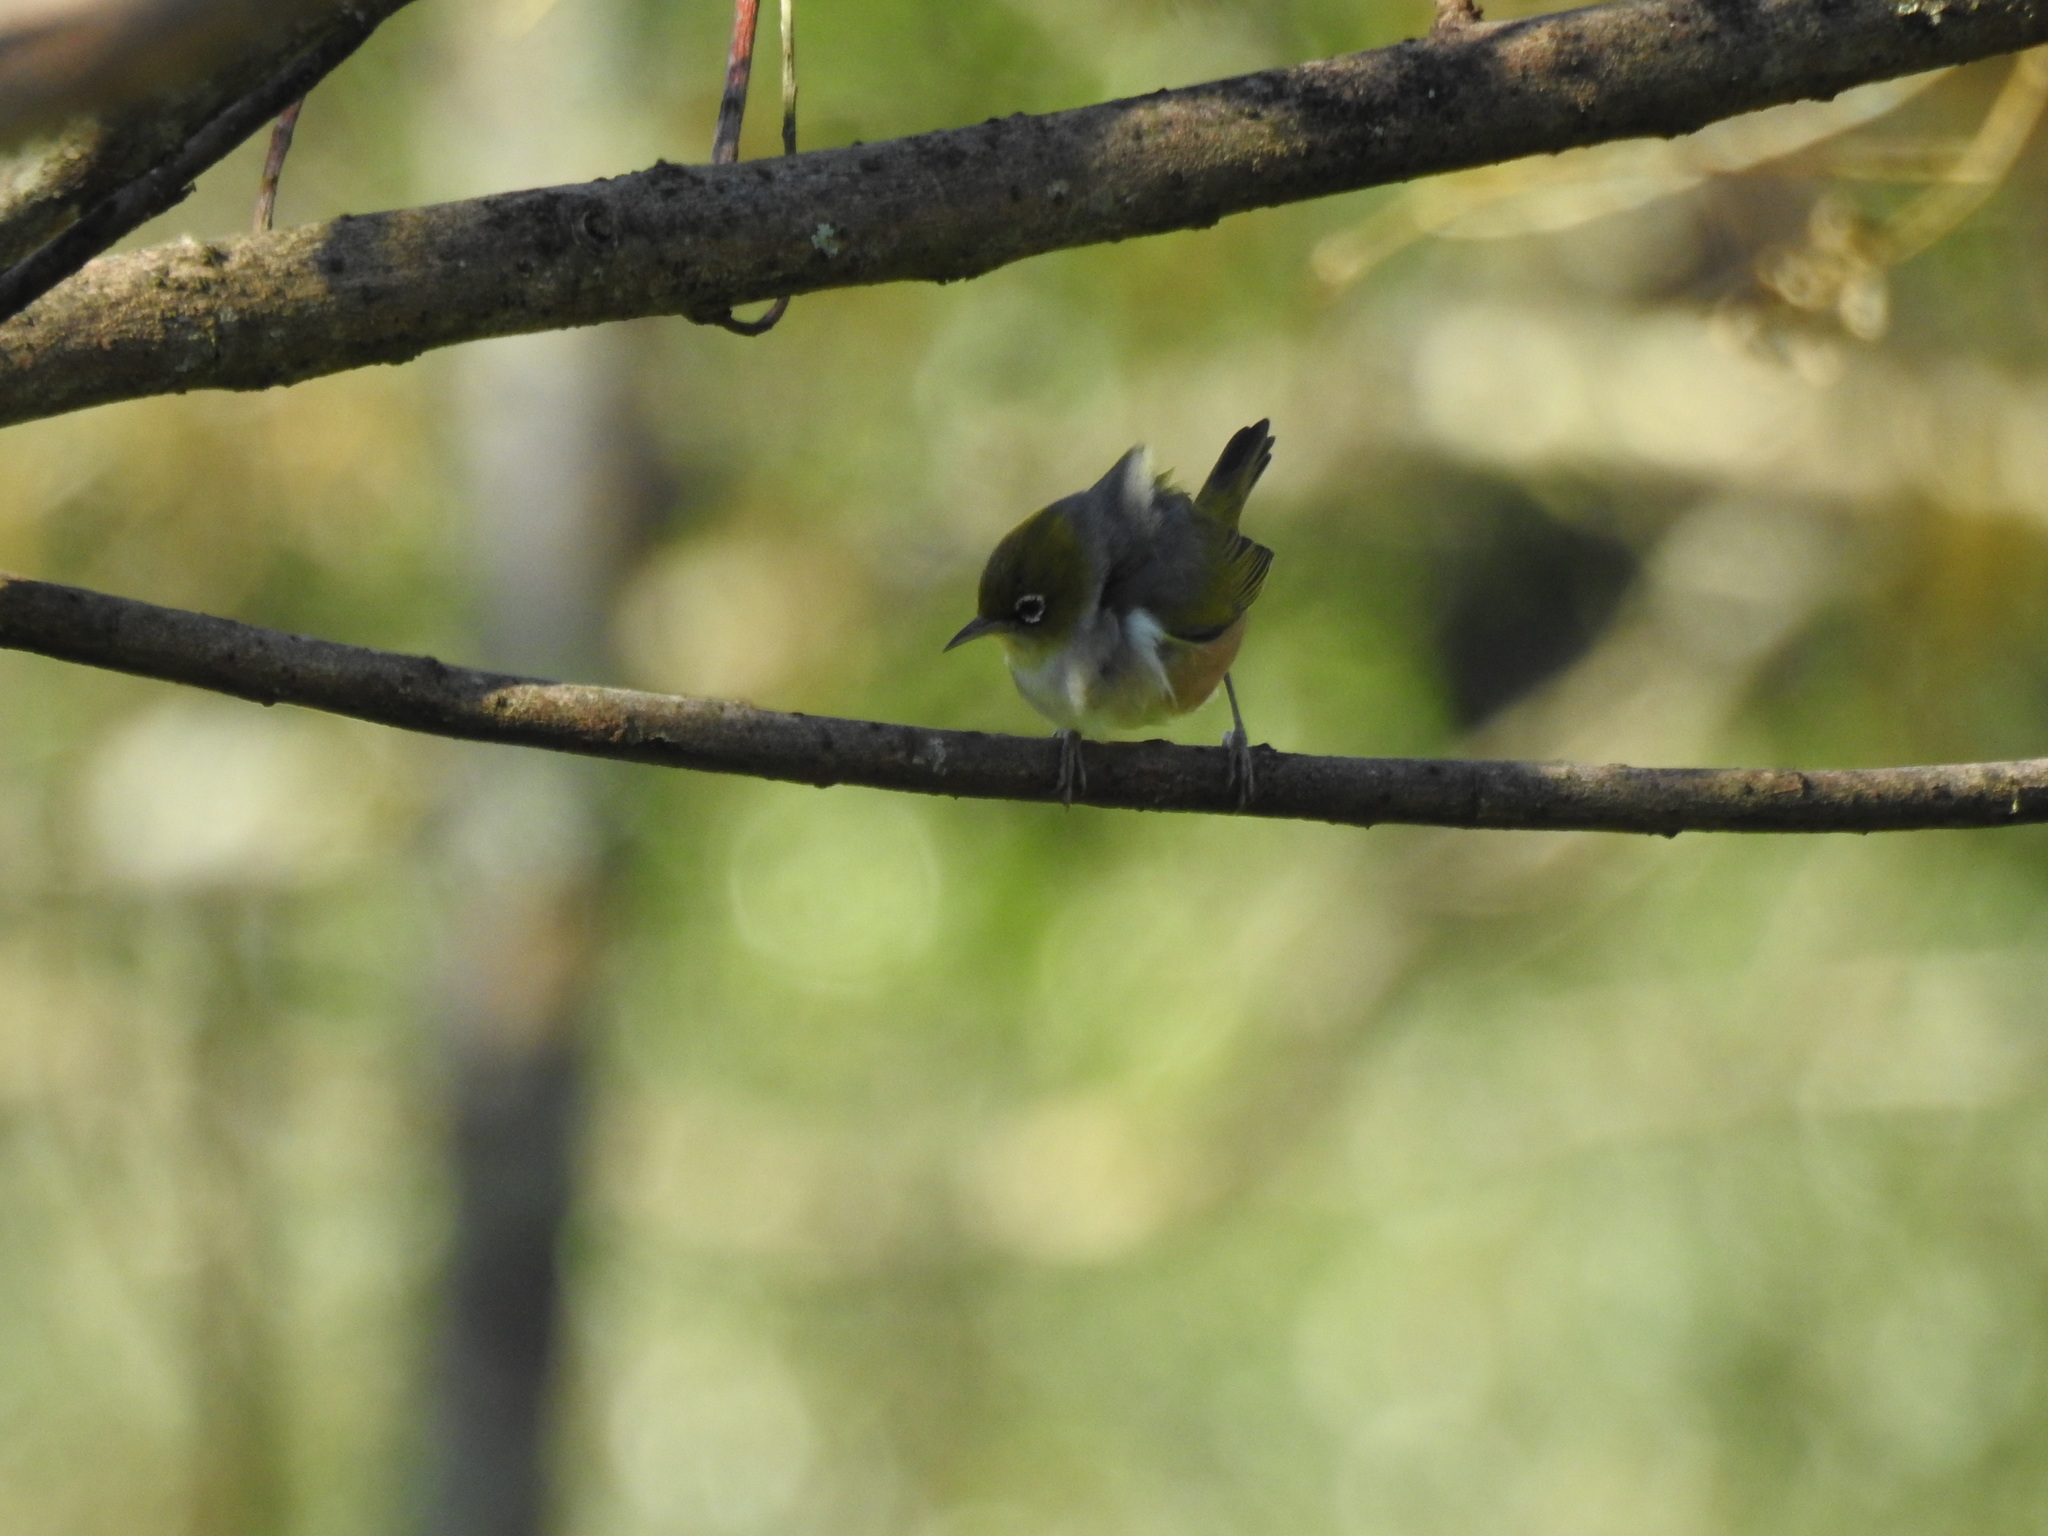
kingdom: Animalia
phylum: Chordata
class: Aves
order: Passeriformes
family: Zosteropidae
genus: Zosterops
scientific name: Zosterops lateralis
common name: Silvereye
